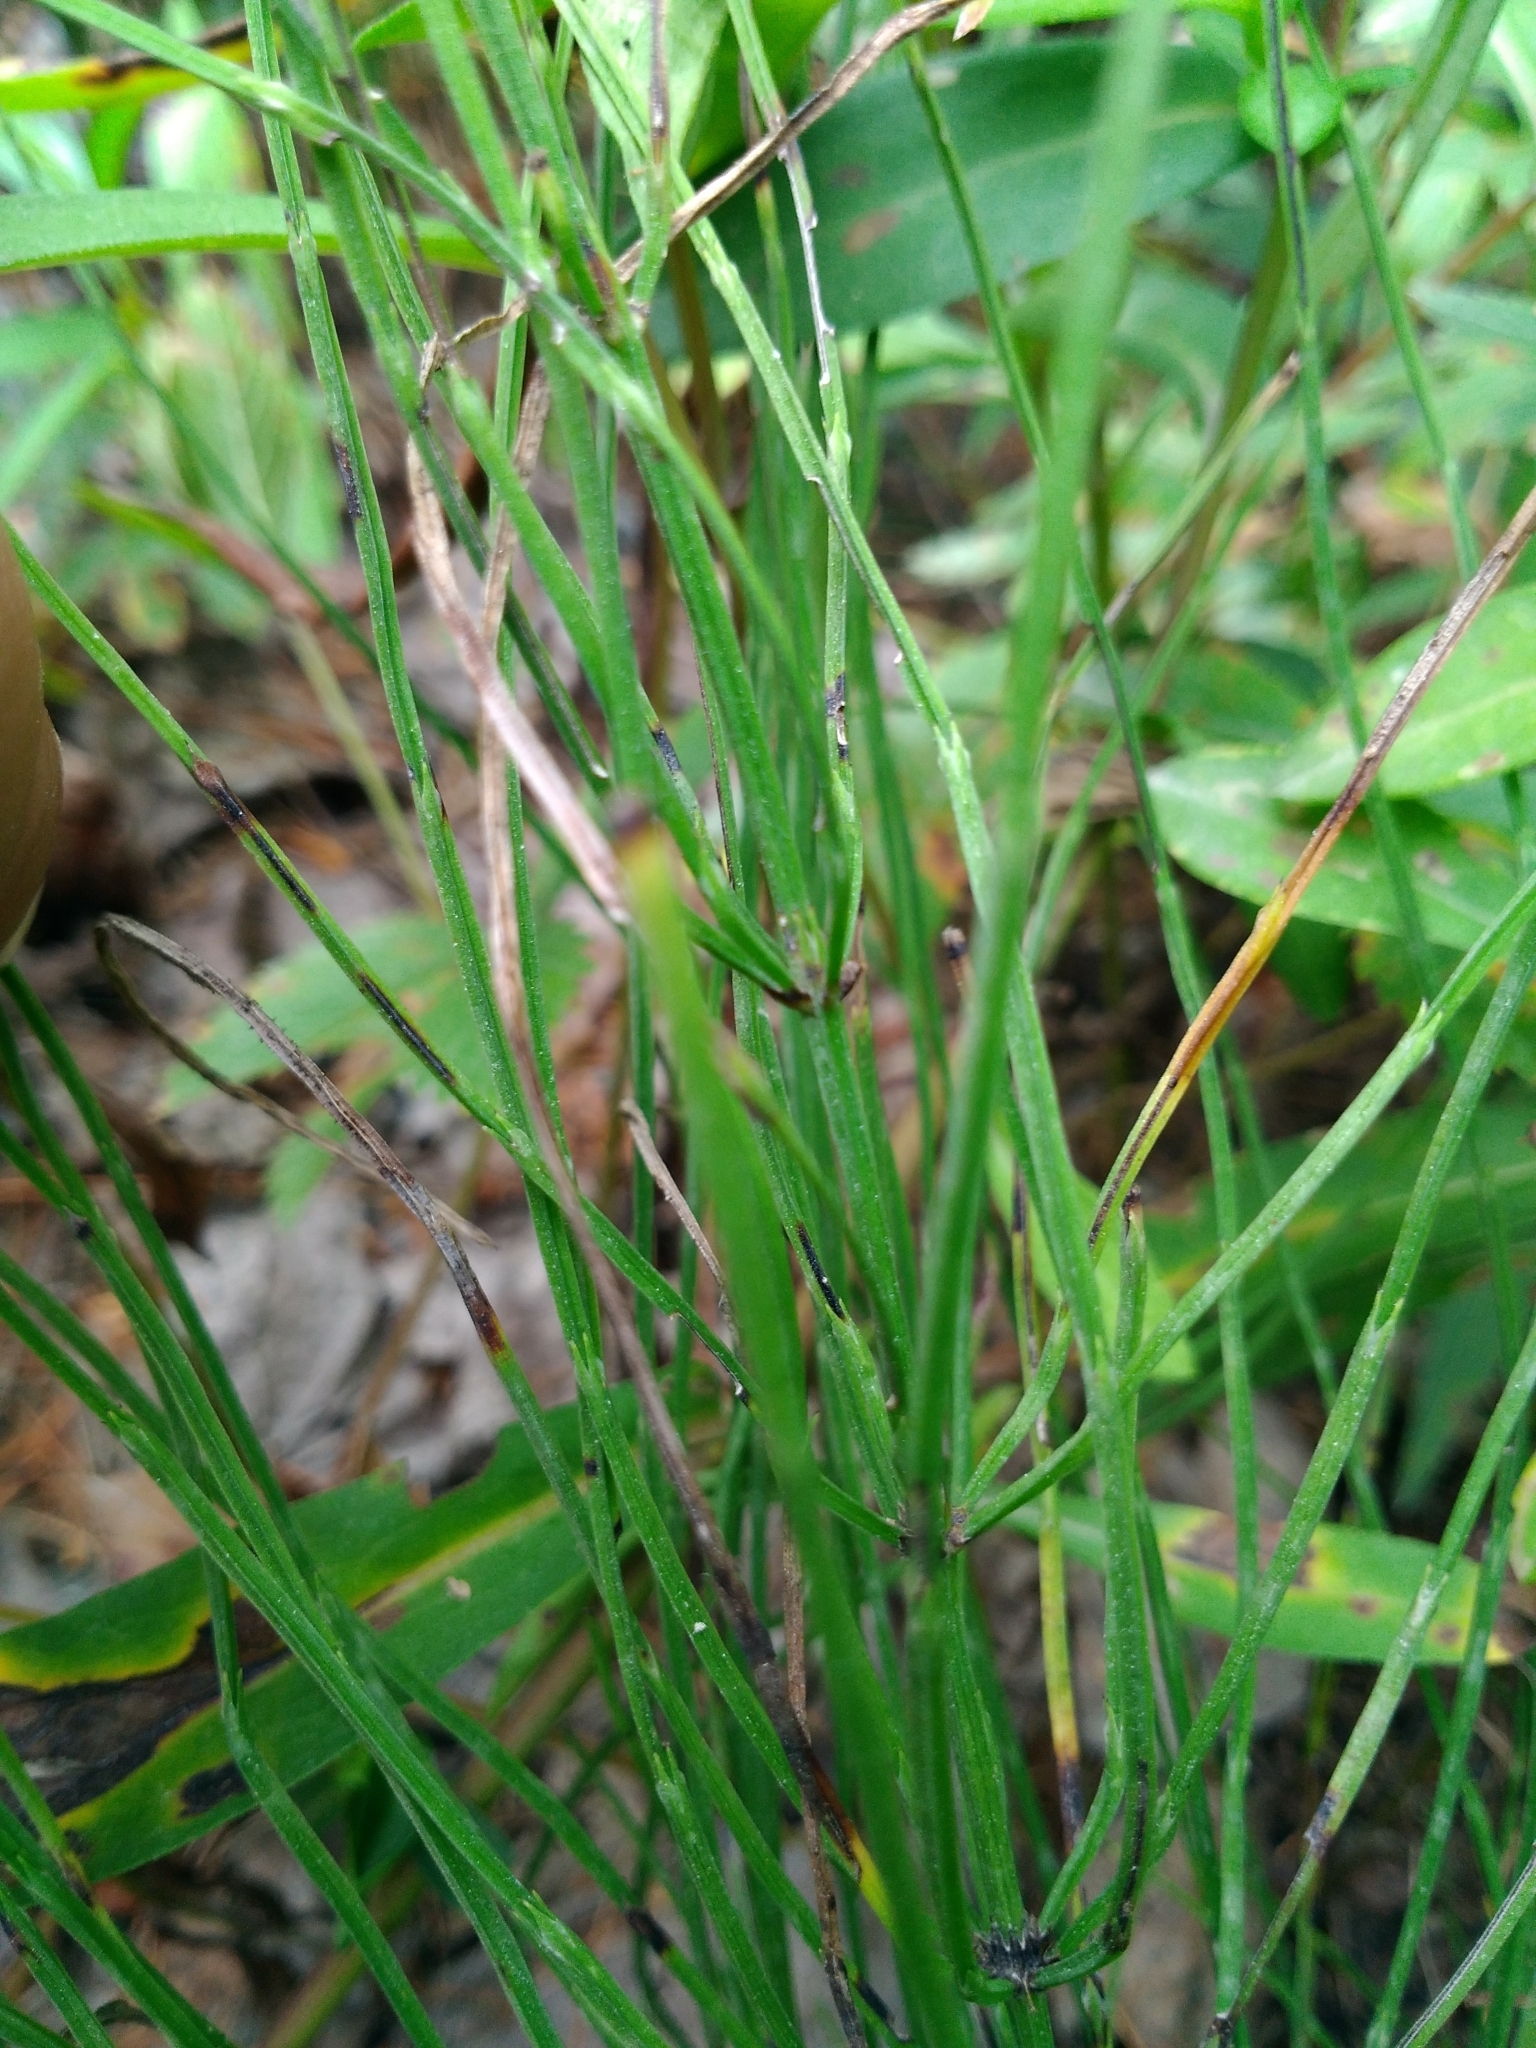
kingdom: Plantae
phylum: Tracheophyta
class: Polypodiopsida
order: Equisetales
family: Equisetaceae
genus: Equisetum
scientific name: Equisetum arvense
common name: Field horsetail
